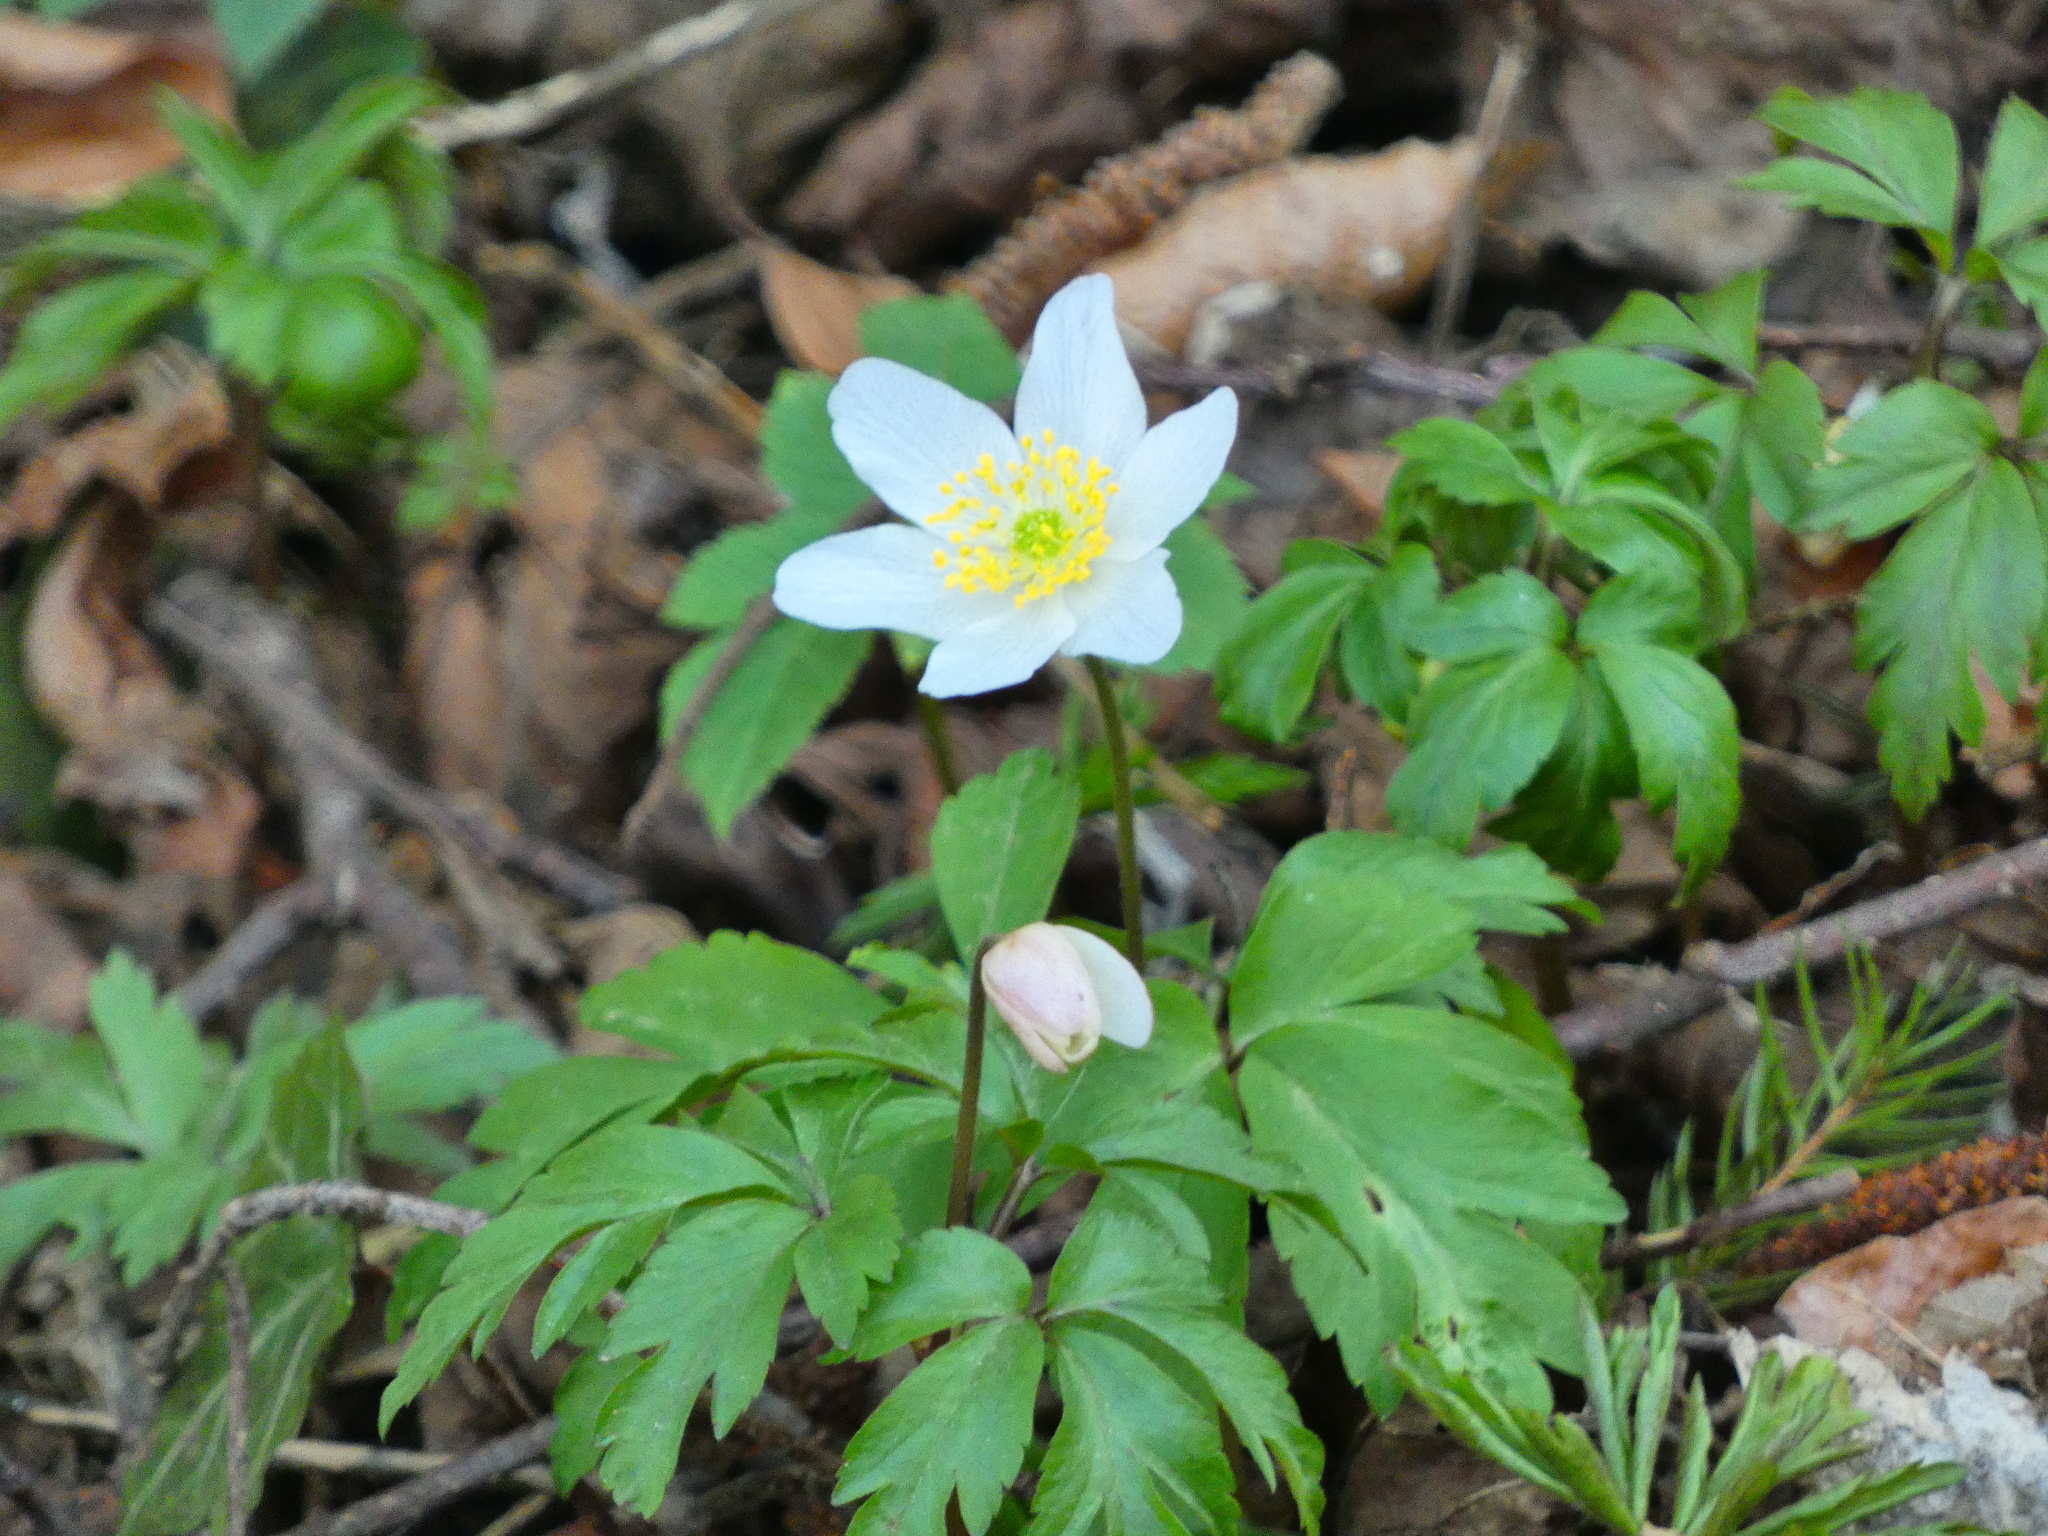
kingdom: Plantae
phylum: Tracheophyta
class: Magnoliopsida
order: Ranunculales
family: Ranunculaceae
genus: Anemone
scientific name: Anemone nemorosa
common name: Wood anemone
